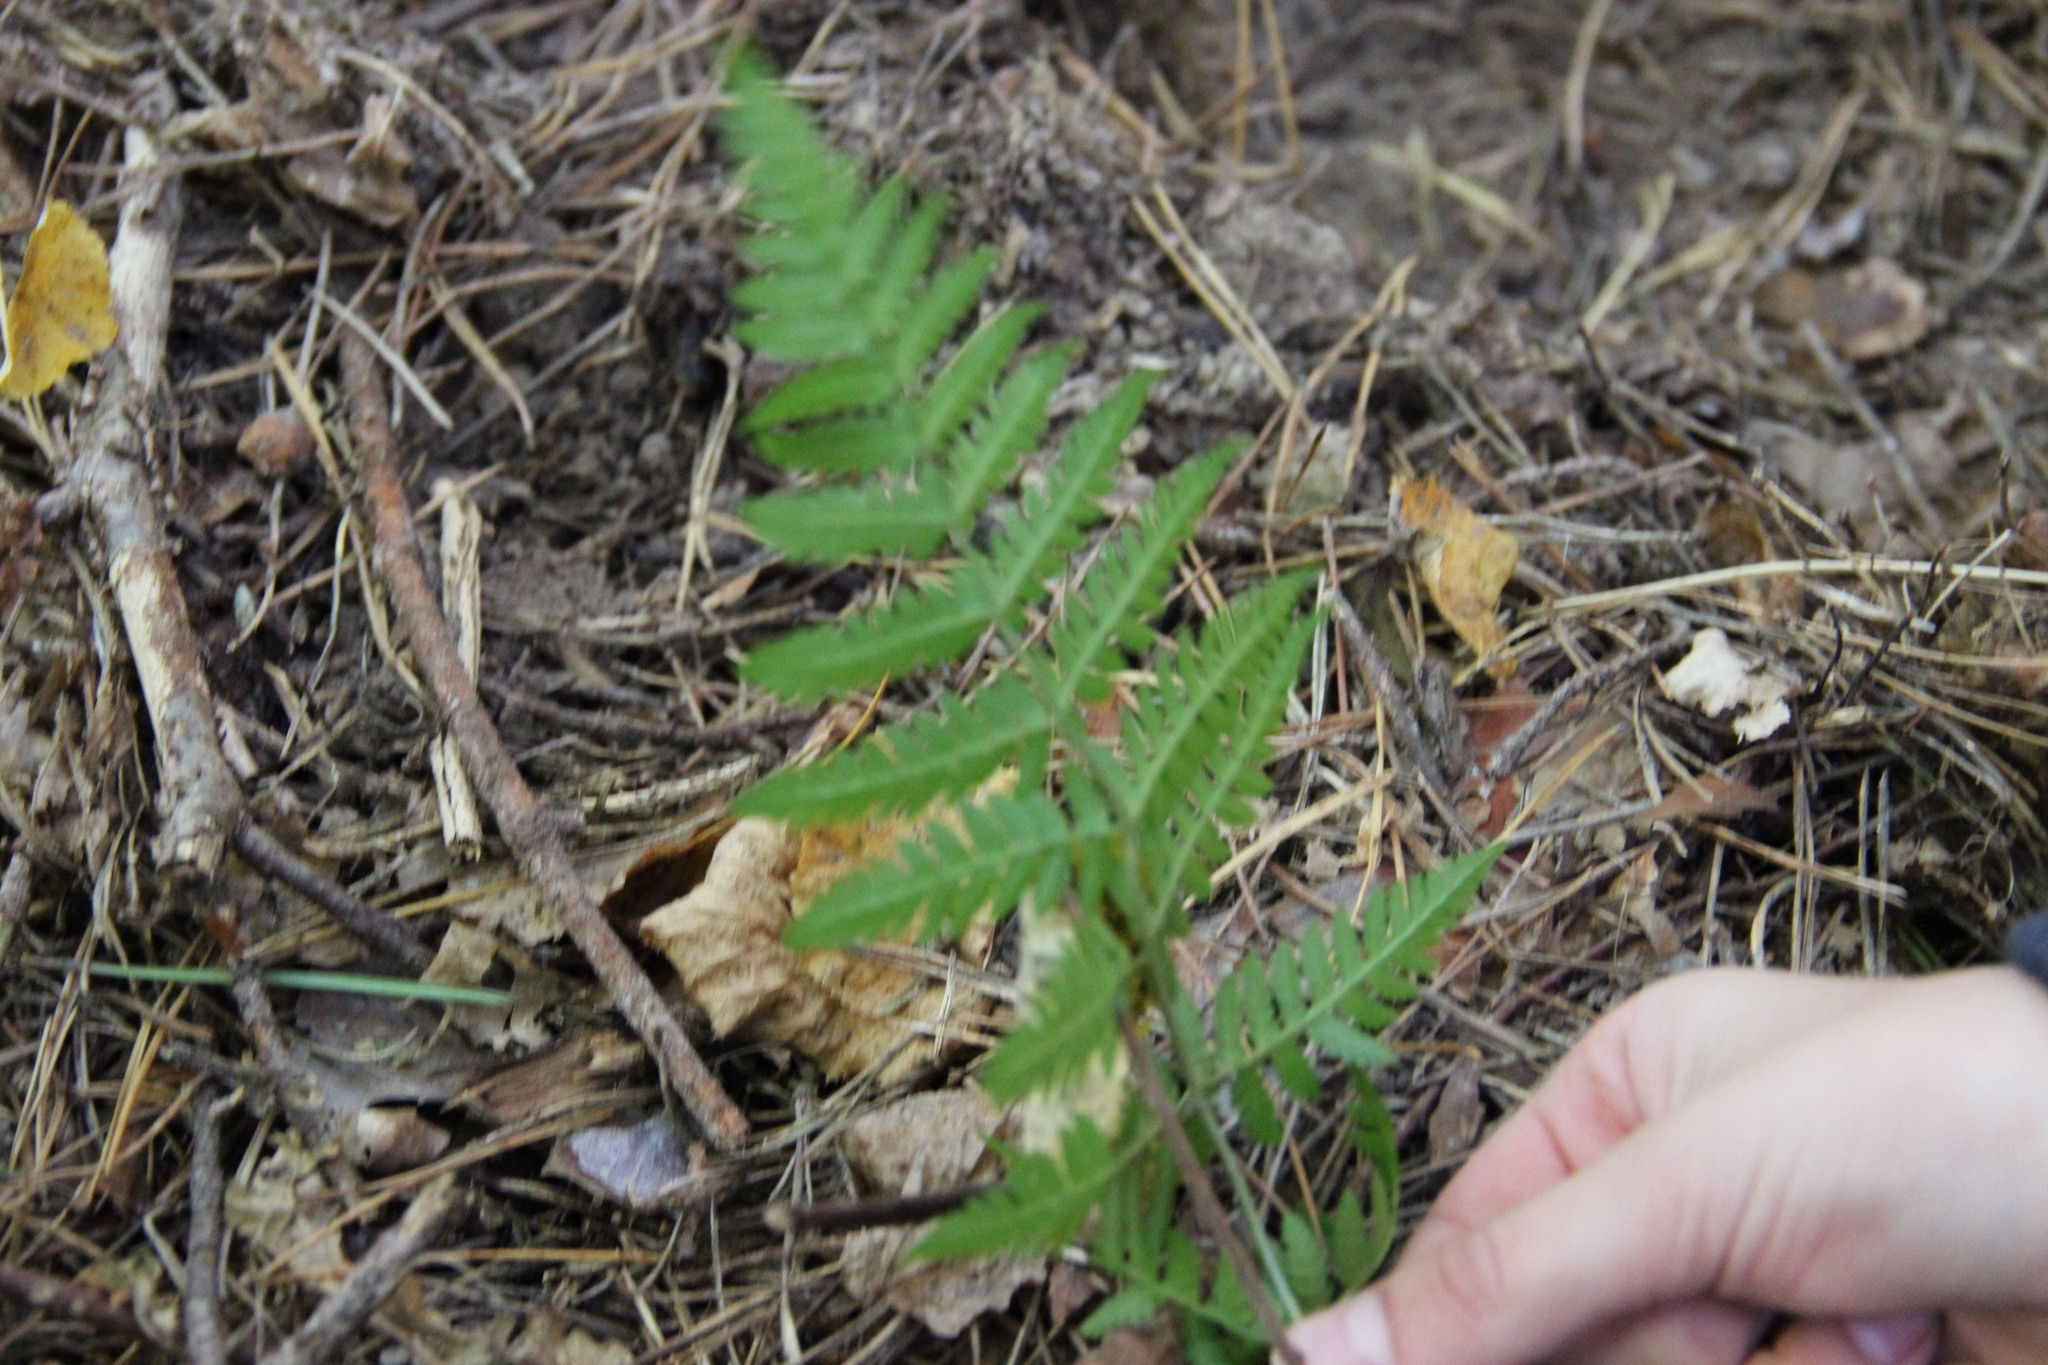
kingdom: Plantae
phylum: Tracheophyta
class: Polypodiopsida
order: Polypodiales
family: Dryopteridaceae
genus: Dryopteris
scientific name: Dryopteris carthusiana
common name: Narrow buckler-fern
